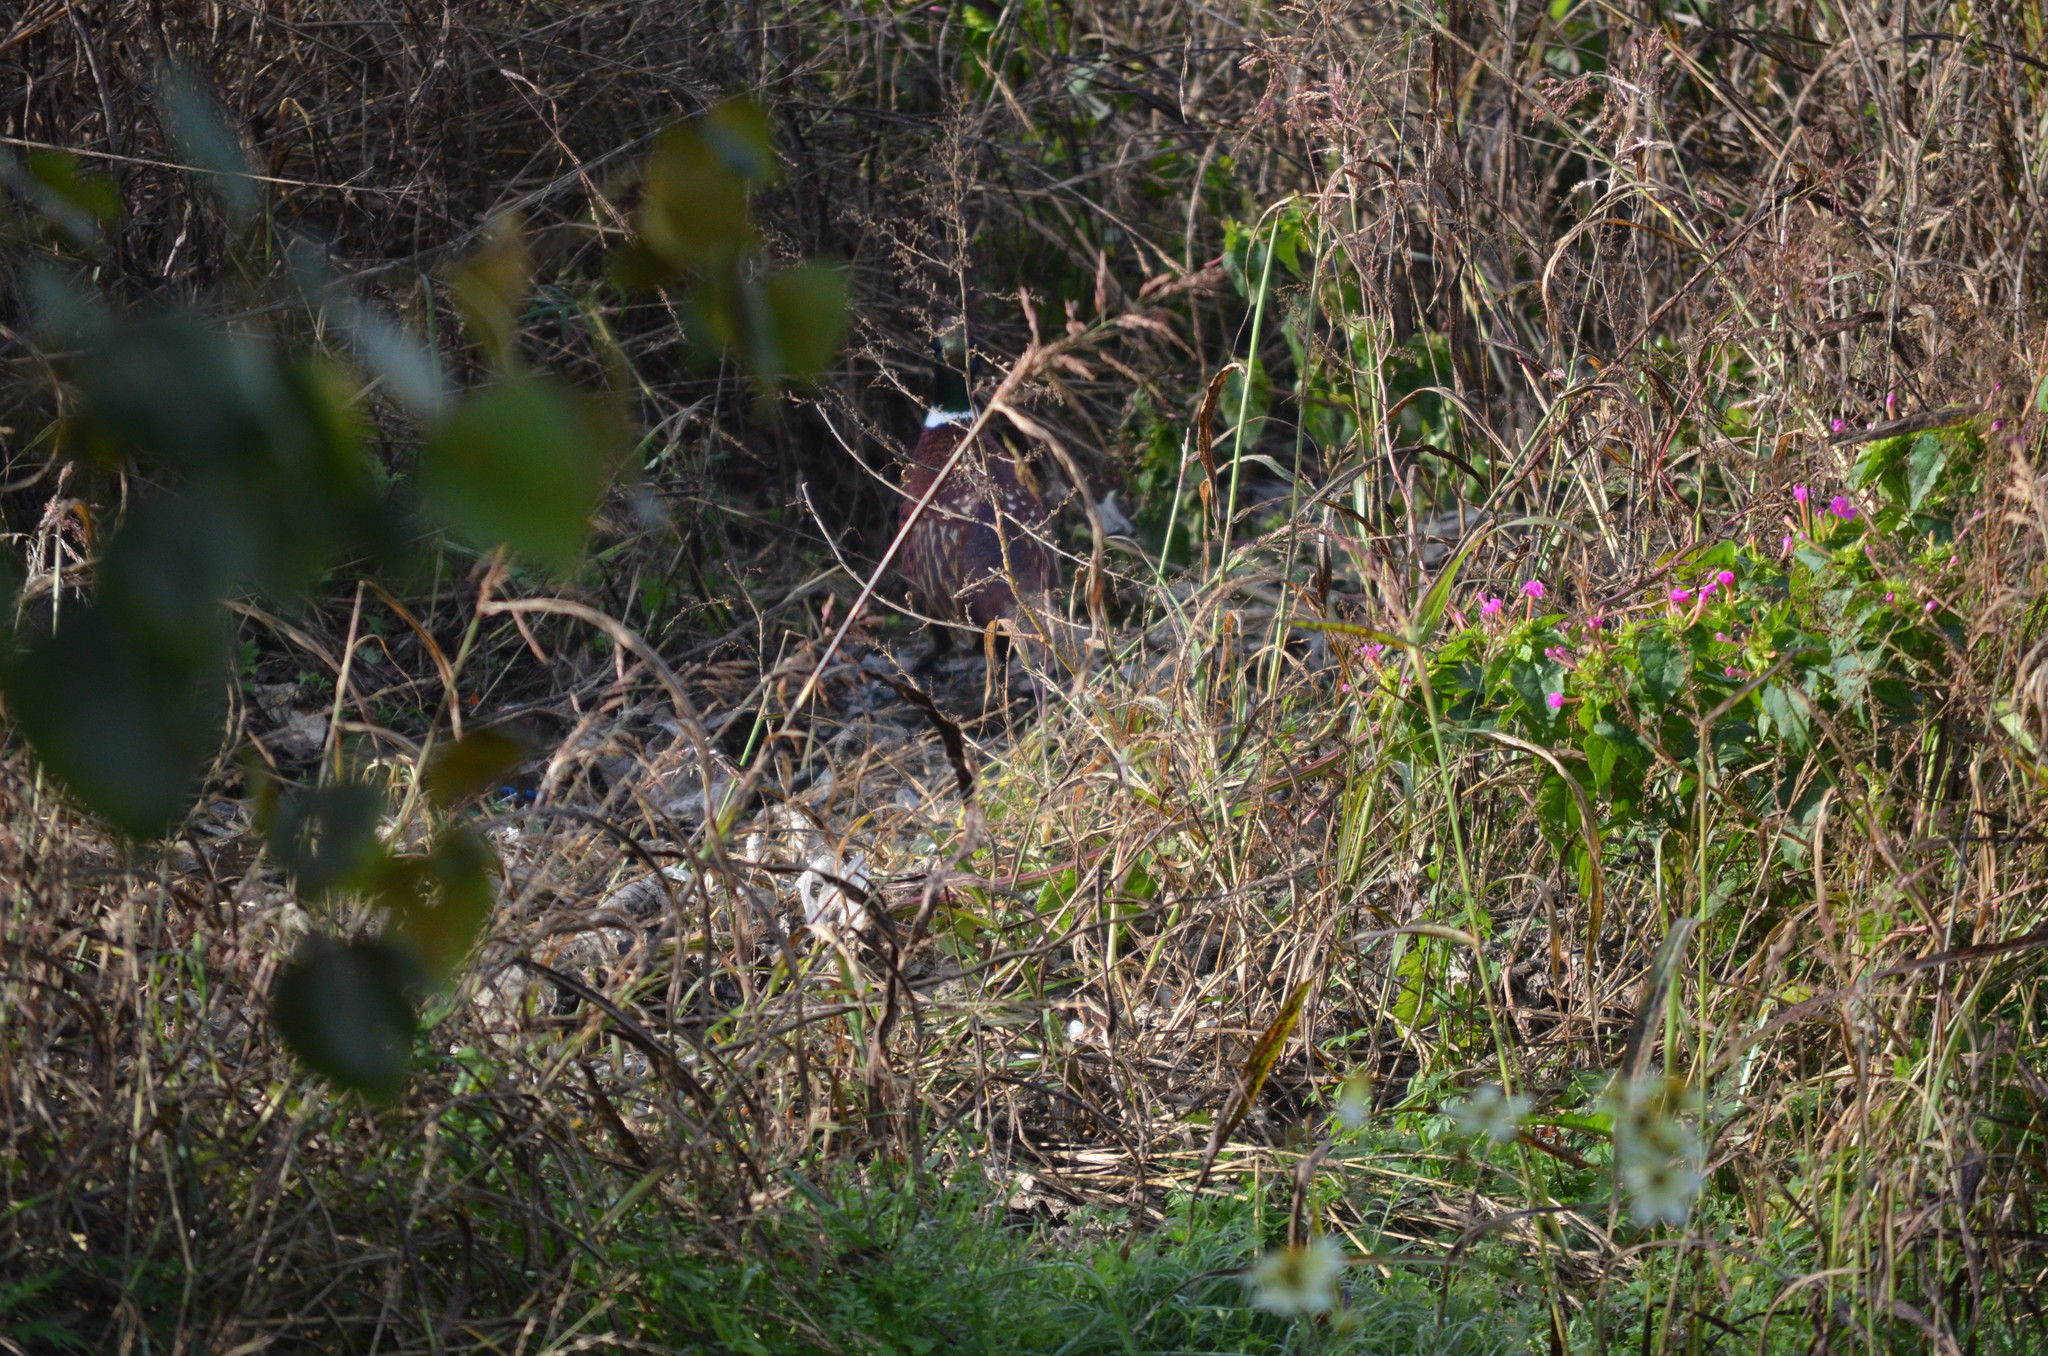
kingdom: Animalia
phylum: Chordata
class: Aves
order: Galliformes
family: Phasianidae
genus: Phasianus
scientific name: Phasianus colchicus
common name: Common pheasant
